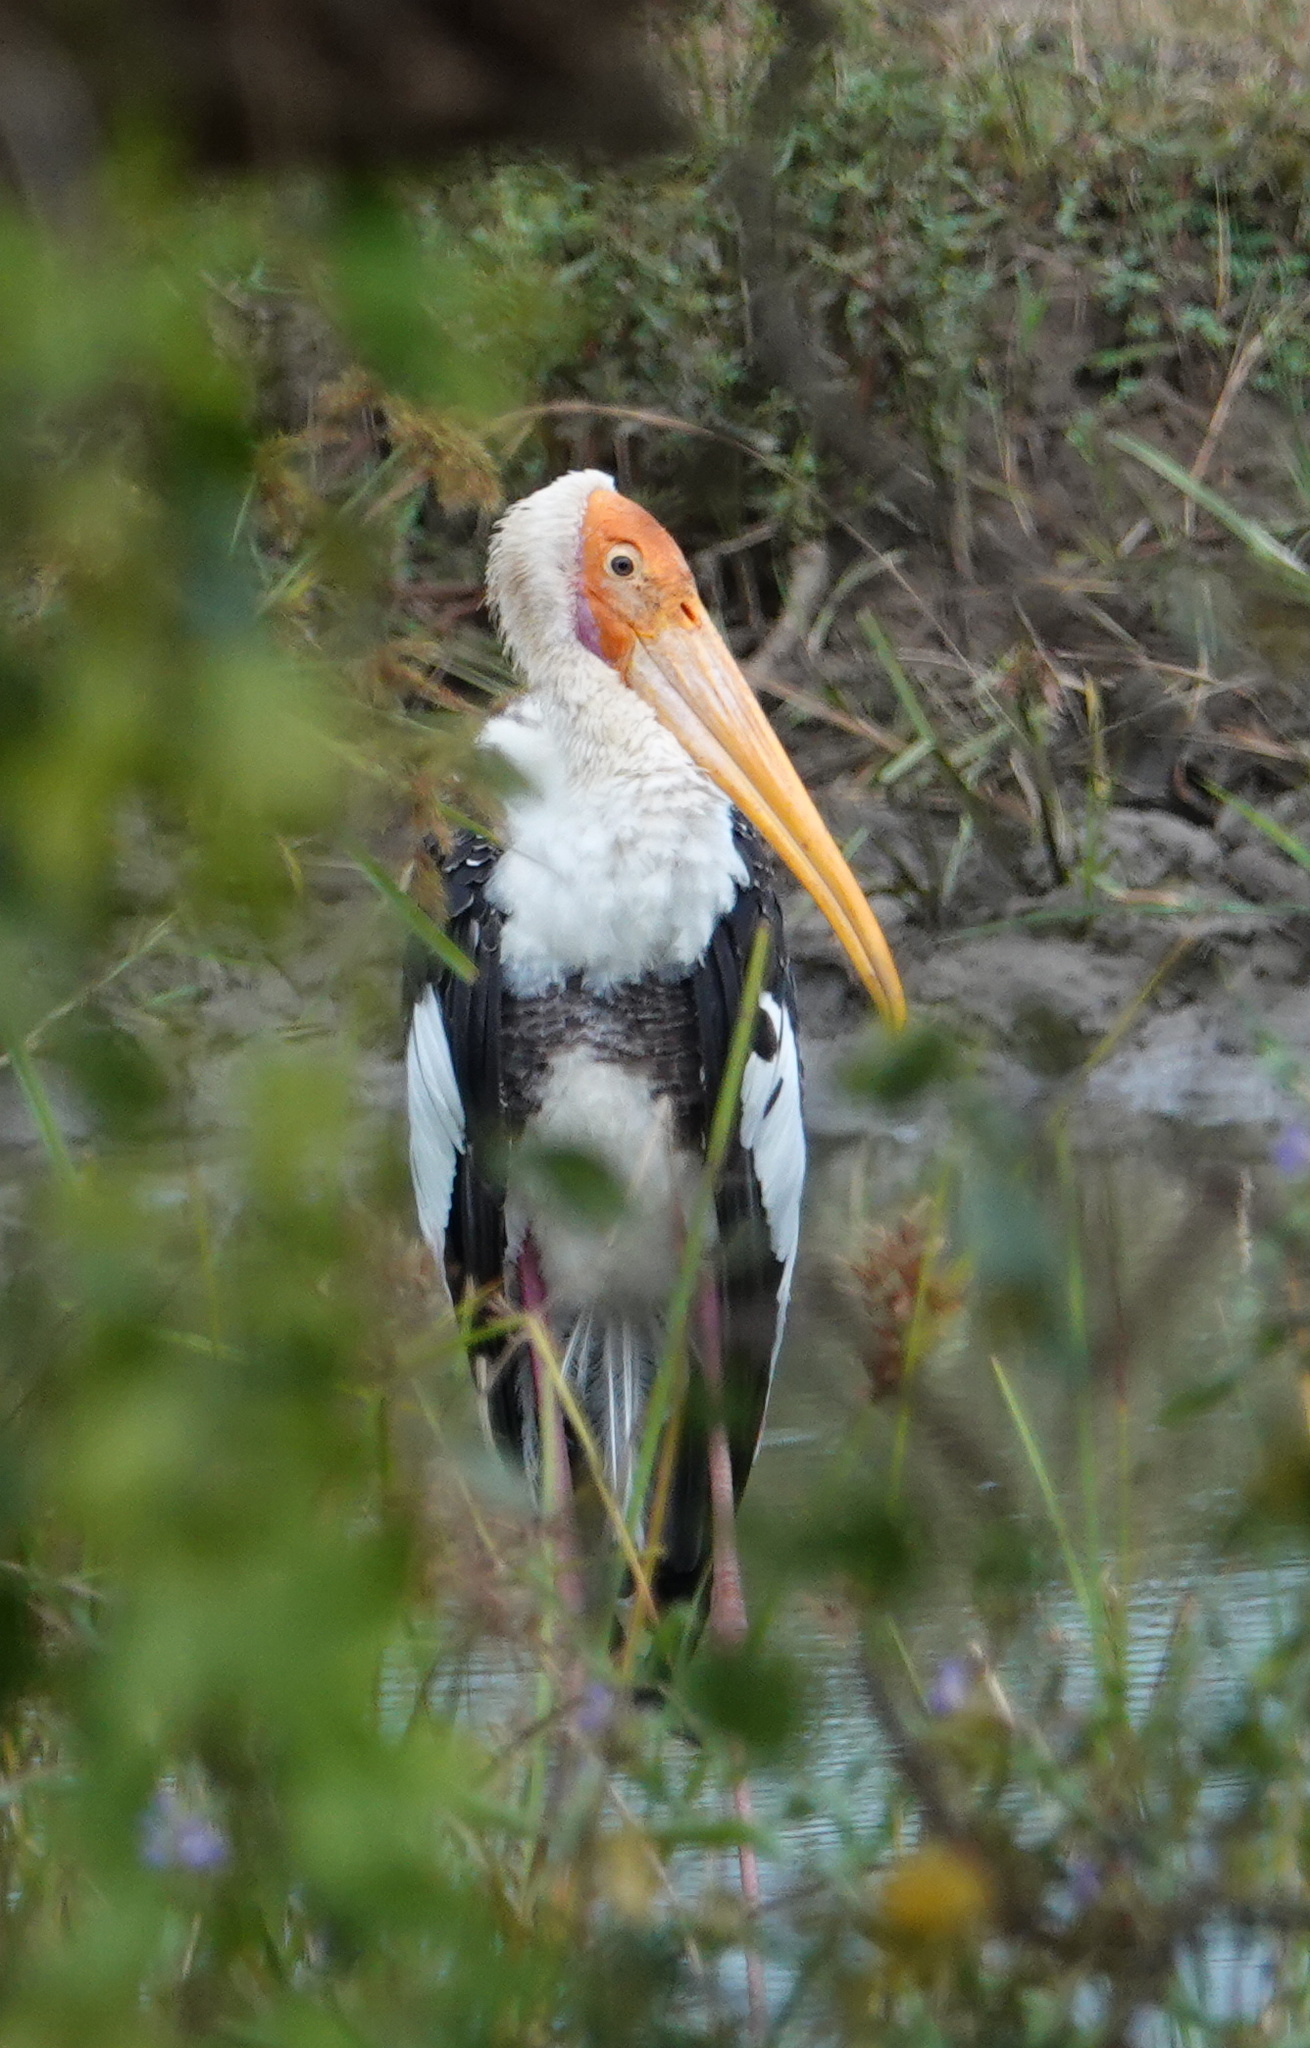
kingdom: Animalia
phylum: Chordata
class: Aves
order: Ciconiiformes
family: Ciconiidae
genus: Mycteria
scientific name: Mycteria leucocephala
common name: Painted stork
